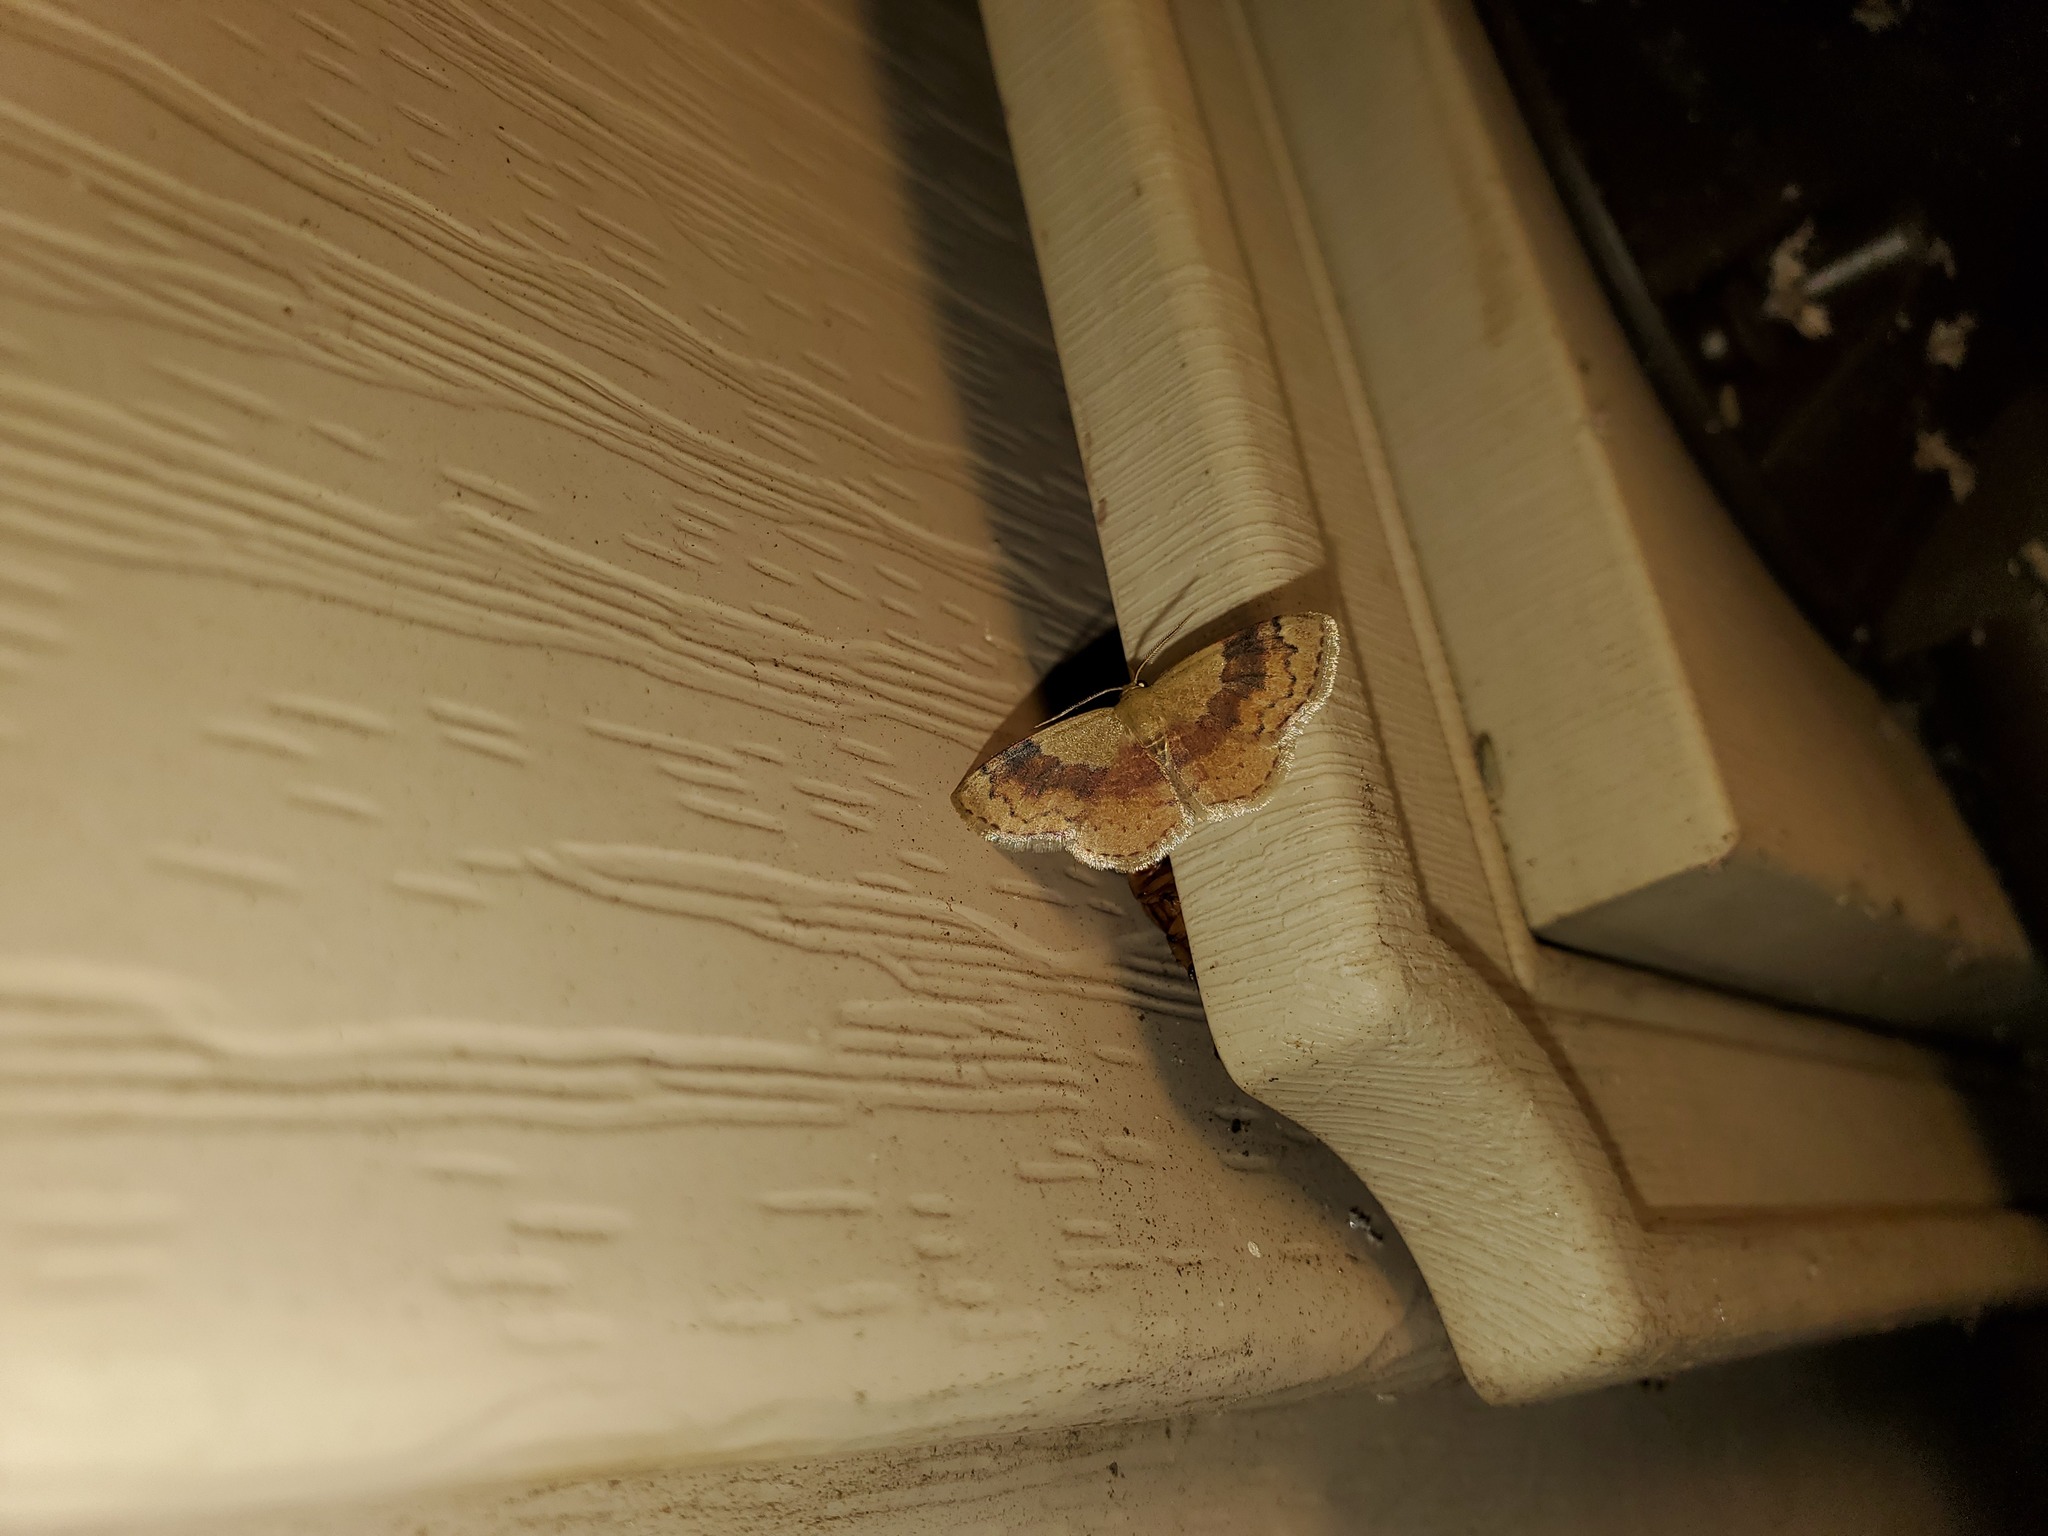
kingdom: Animalia
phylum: Arthropoda
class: Insecta
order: Lepidoptera
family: Geometridae
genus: Leptostales
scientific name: Leptostales ferruminaria
